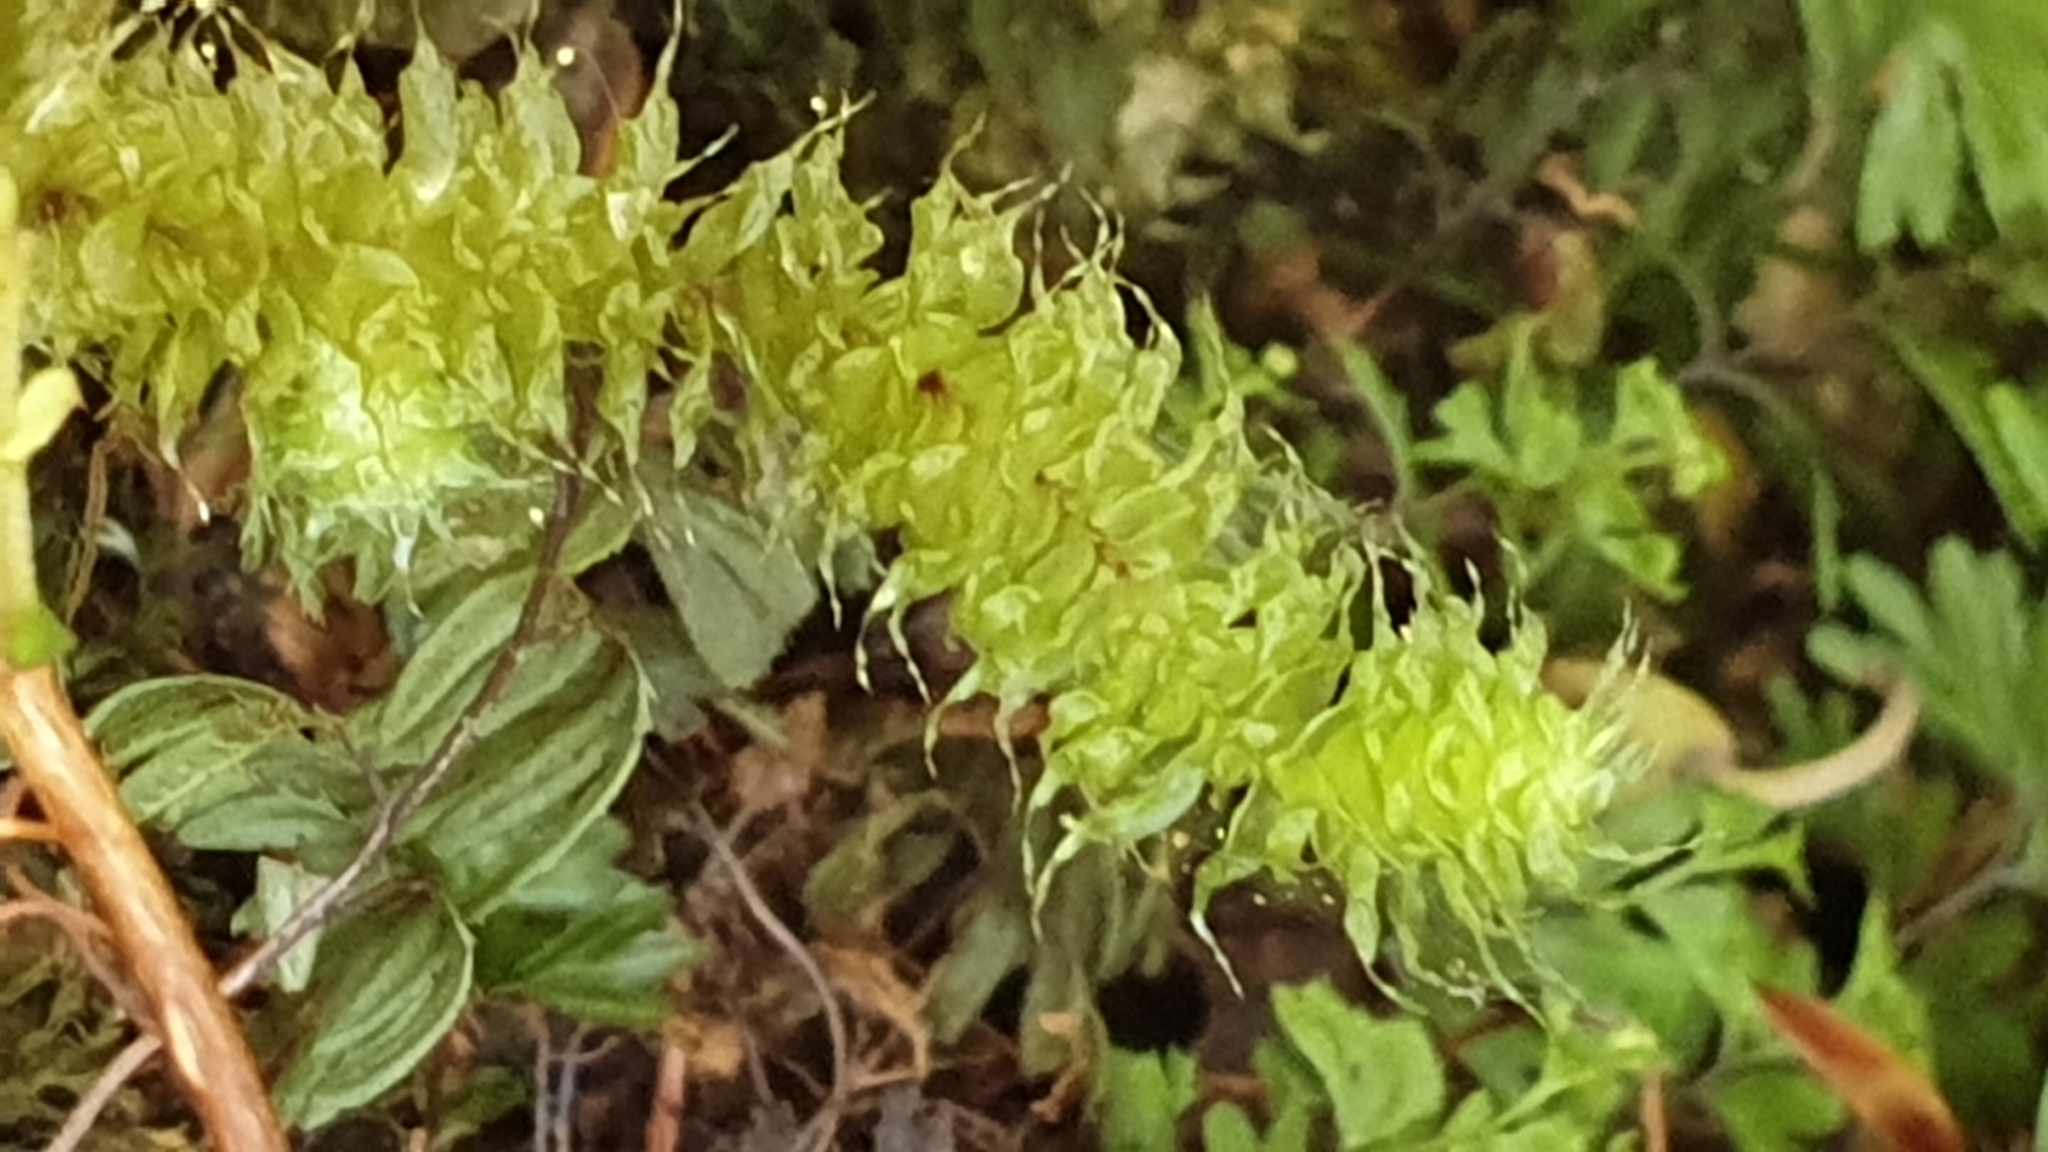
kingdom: Plantae
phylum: Bryophyta
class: Bryopsida
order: Ptychomniales
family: Ptychomniaceae
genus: Ptychomnion
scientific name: Ptychomnion aciculare
